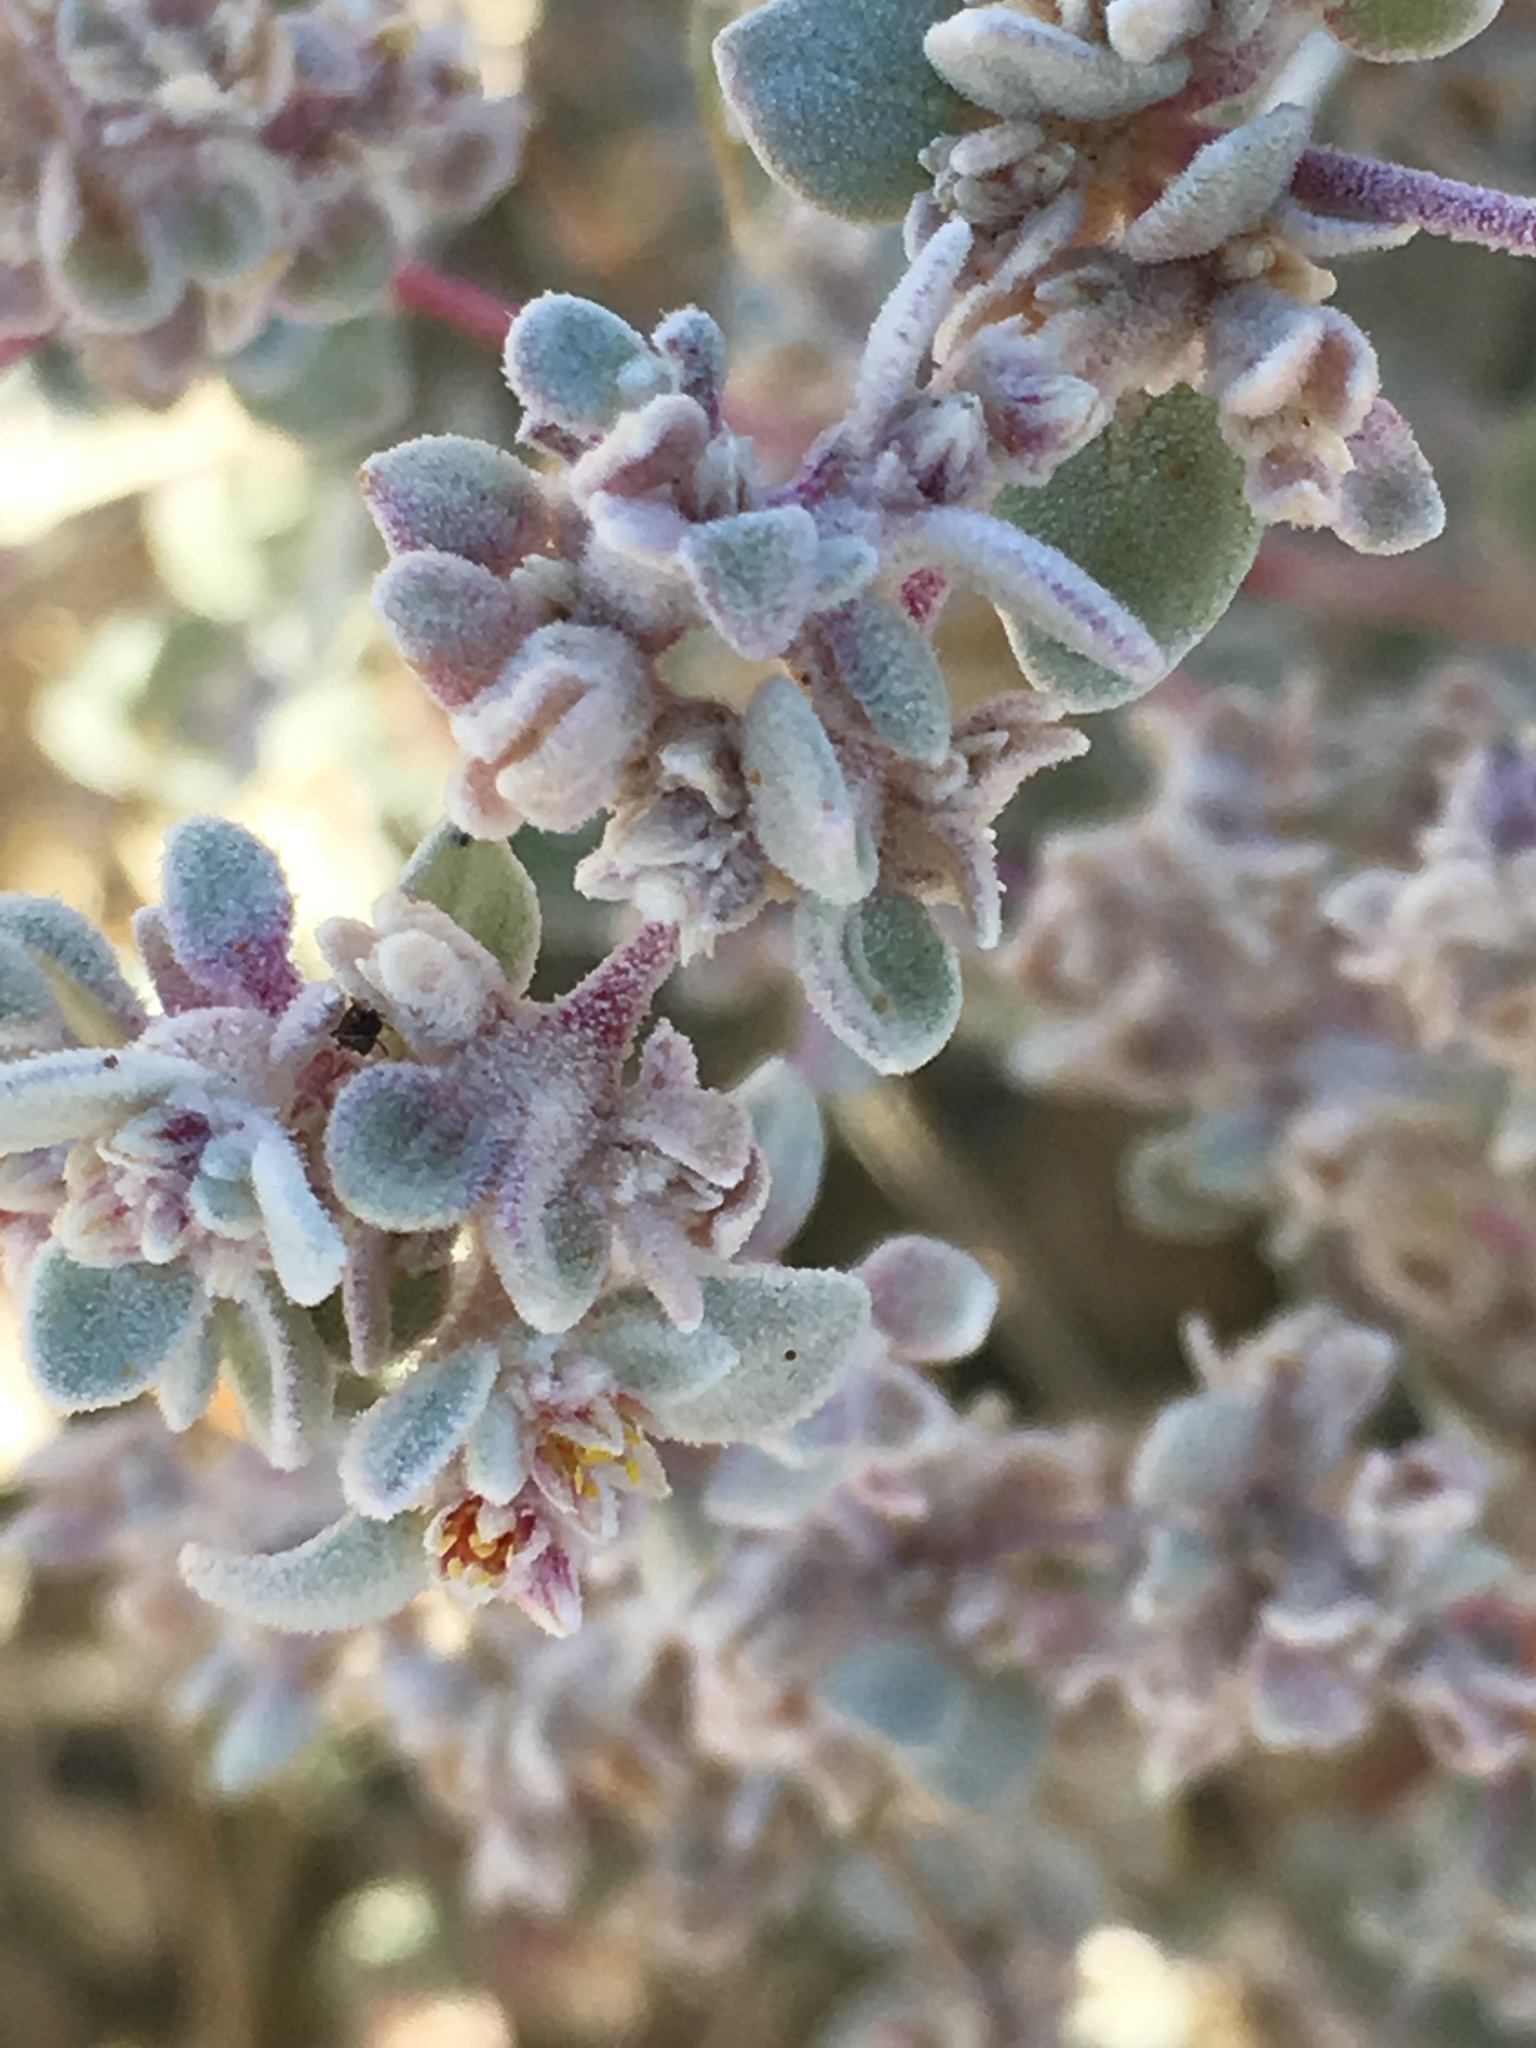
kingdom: Plantae
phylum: Tracheophyta
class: Magnoliopsida
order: Caryophyllales
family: Amaranthaceae
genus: Tidestromia
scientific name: Tidestromia suffruticosa
